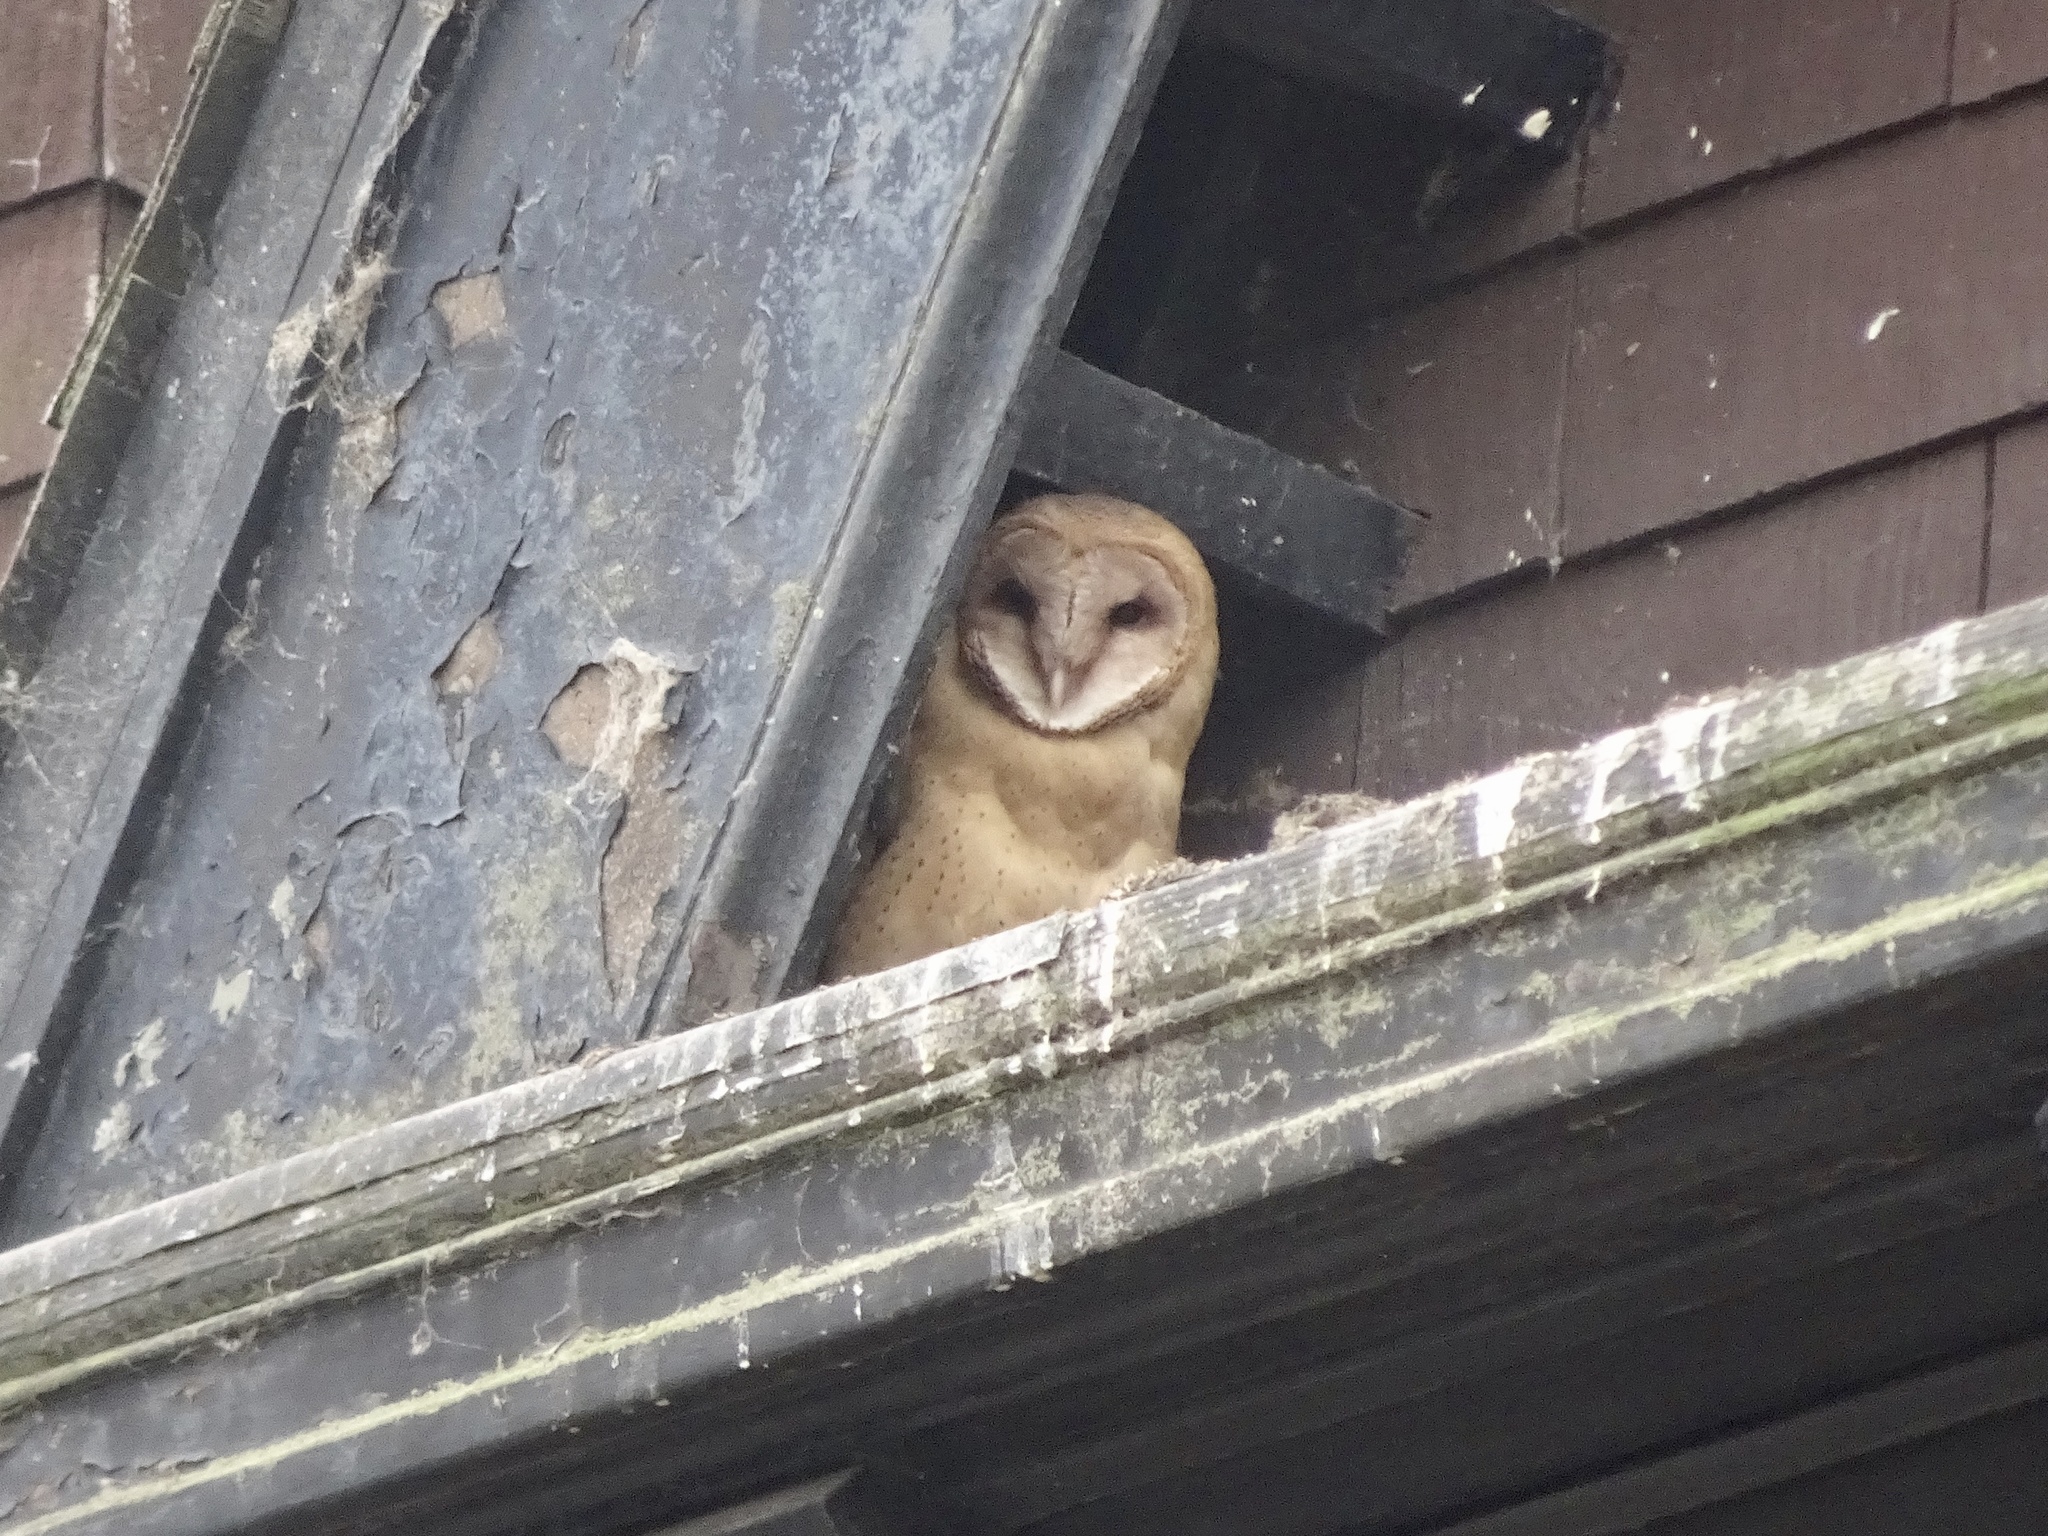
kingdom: Animalia
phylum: Chordata
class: Aves
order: Strigiformes
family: Tytonidae
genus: Tyto
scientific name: Tyto alba
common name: Barn owl
